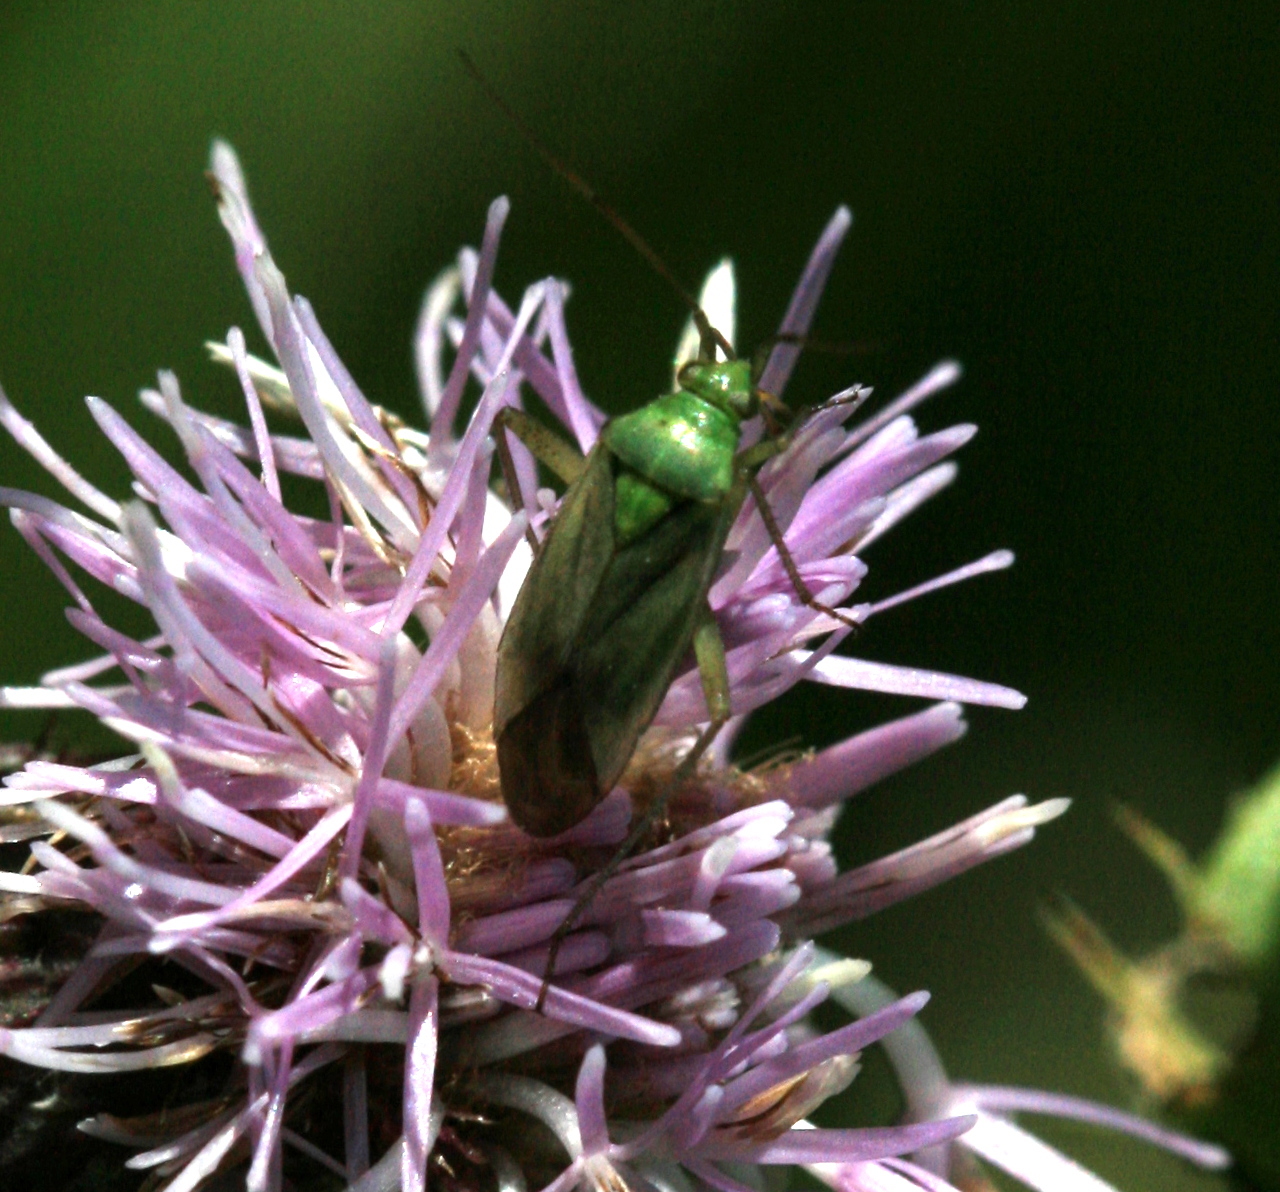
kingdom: Animalia
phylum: Arthropoda
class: Insecta
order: Hemiptera
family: Miridae
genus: Closterotomus
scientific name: Closterotomus norvegicus
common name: Plant bug
